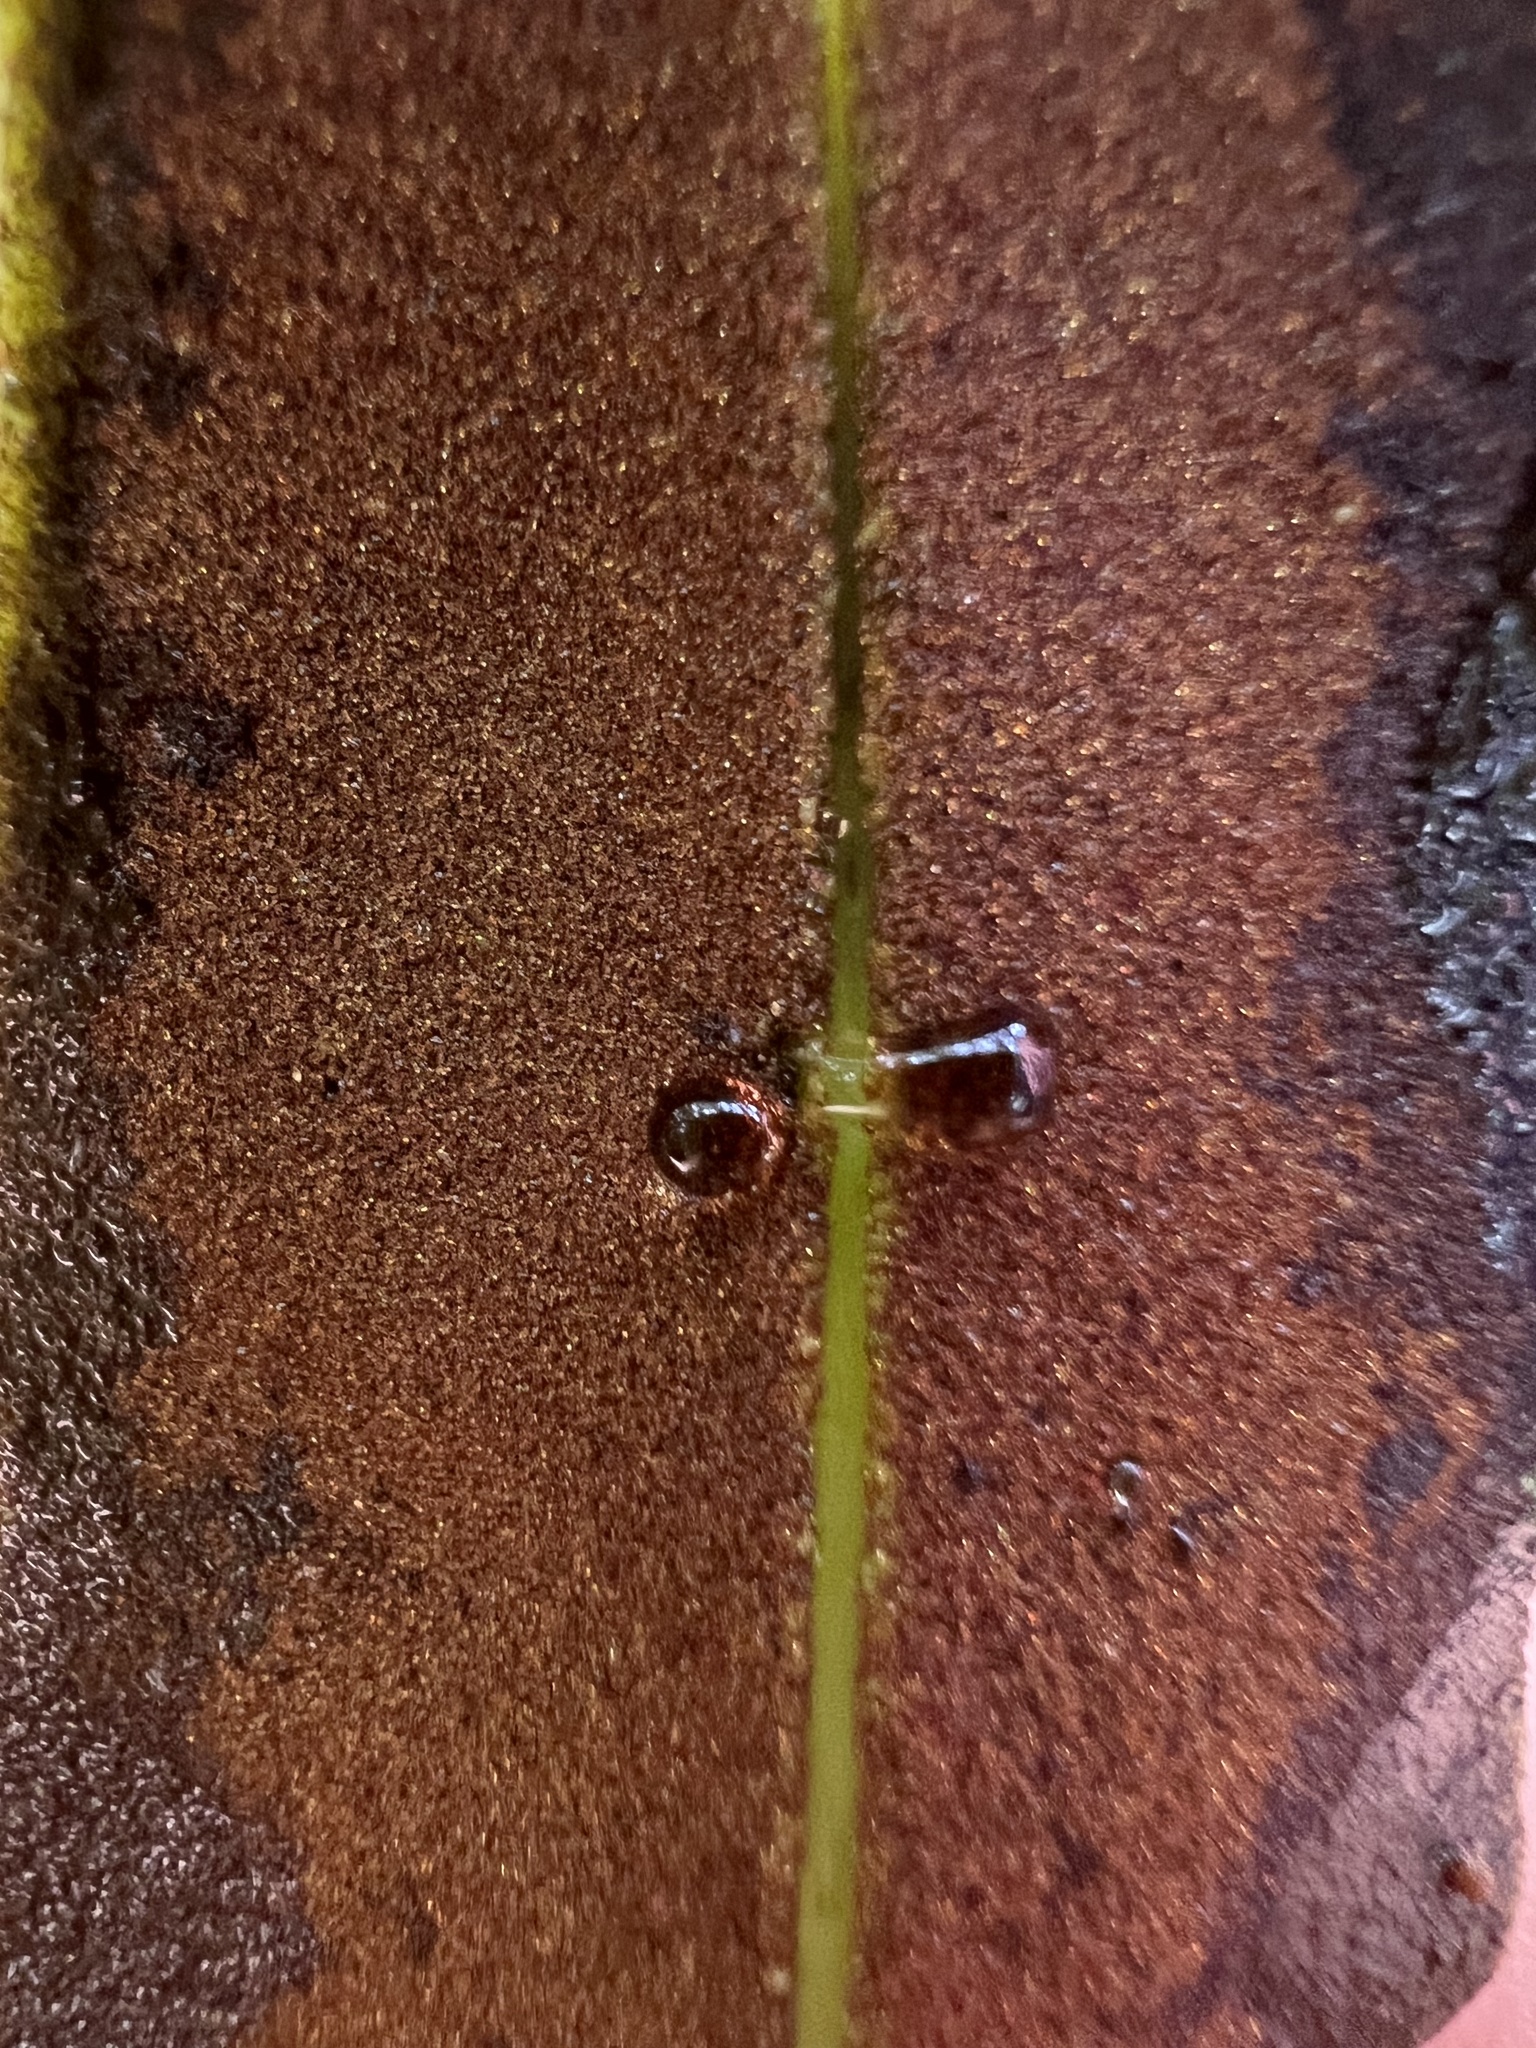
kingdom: Plantae
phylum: Tracheophyta
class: Polypodiopsida
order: Polypodiales
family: Pteridaceae
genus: Acrostichum
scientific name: Acrostichum aureum
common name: Leather fern
